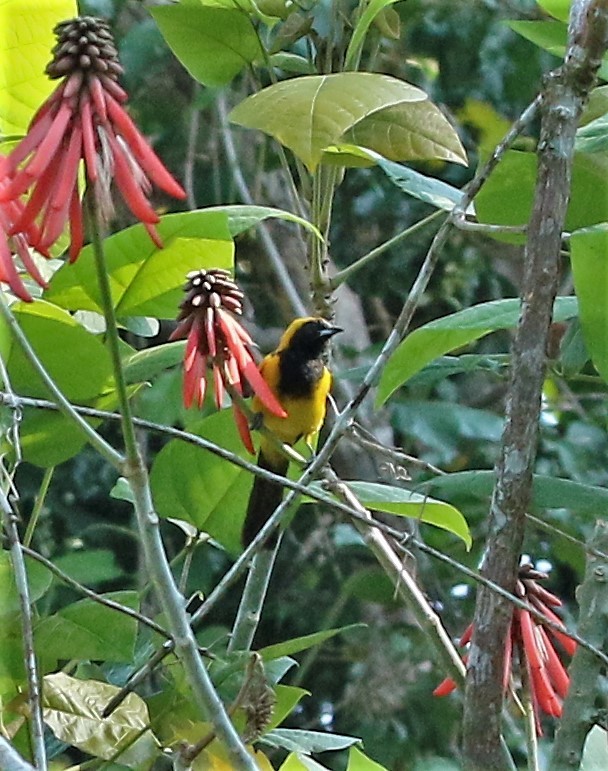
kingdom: Animalia
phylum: Chordata
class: Aves
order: Passeriformes
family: Icteridae
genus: Icterus
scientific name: Icterus prosthemelas
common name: Black-cowled oriole
